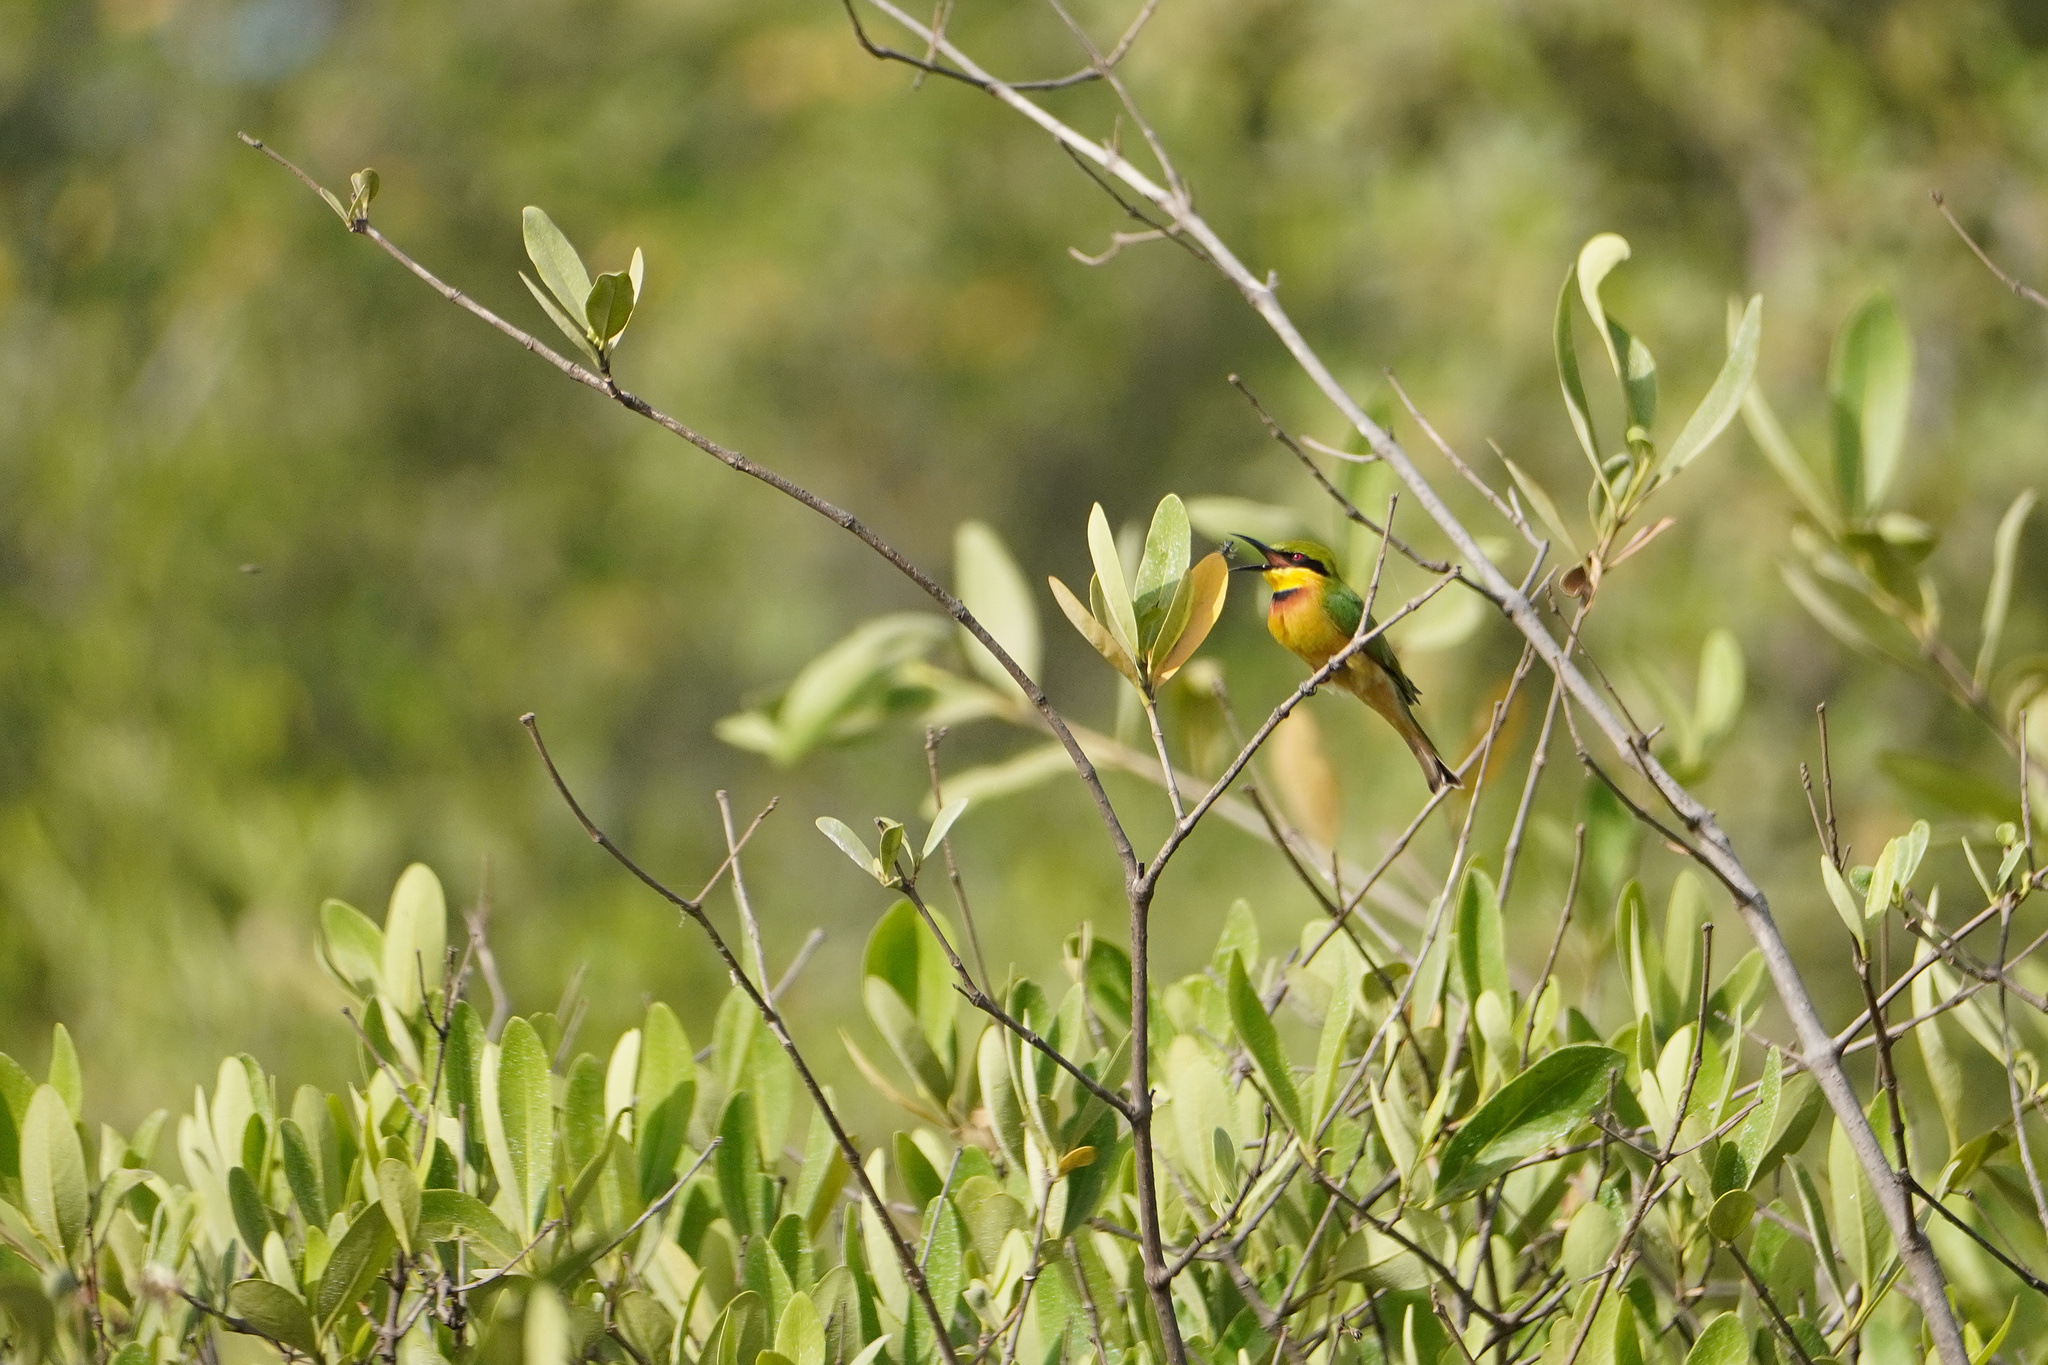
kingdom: Animalia
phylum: Chordata
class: Aves
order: Coraciiformes
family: Meropidae
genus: Merops
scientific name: Merops pusillus
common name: Little bee-eater
